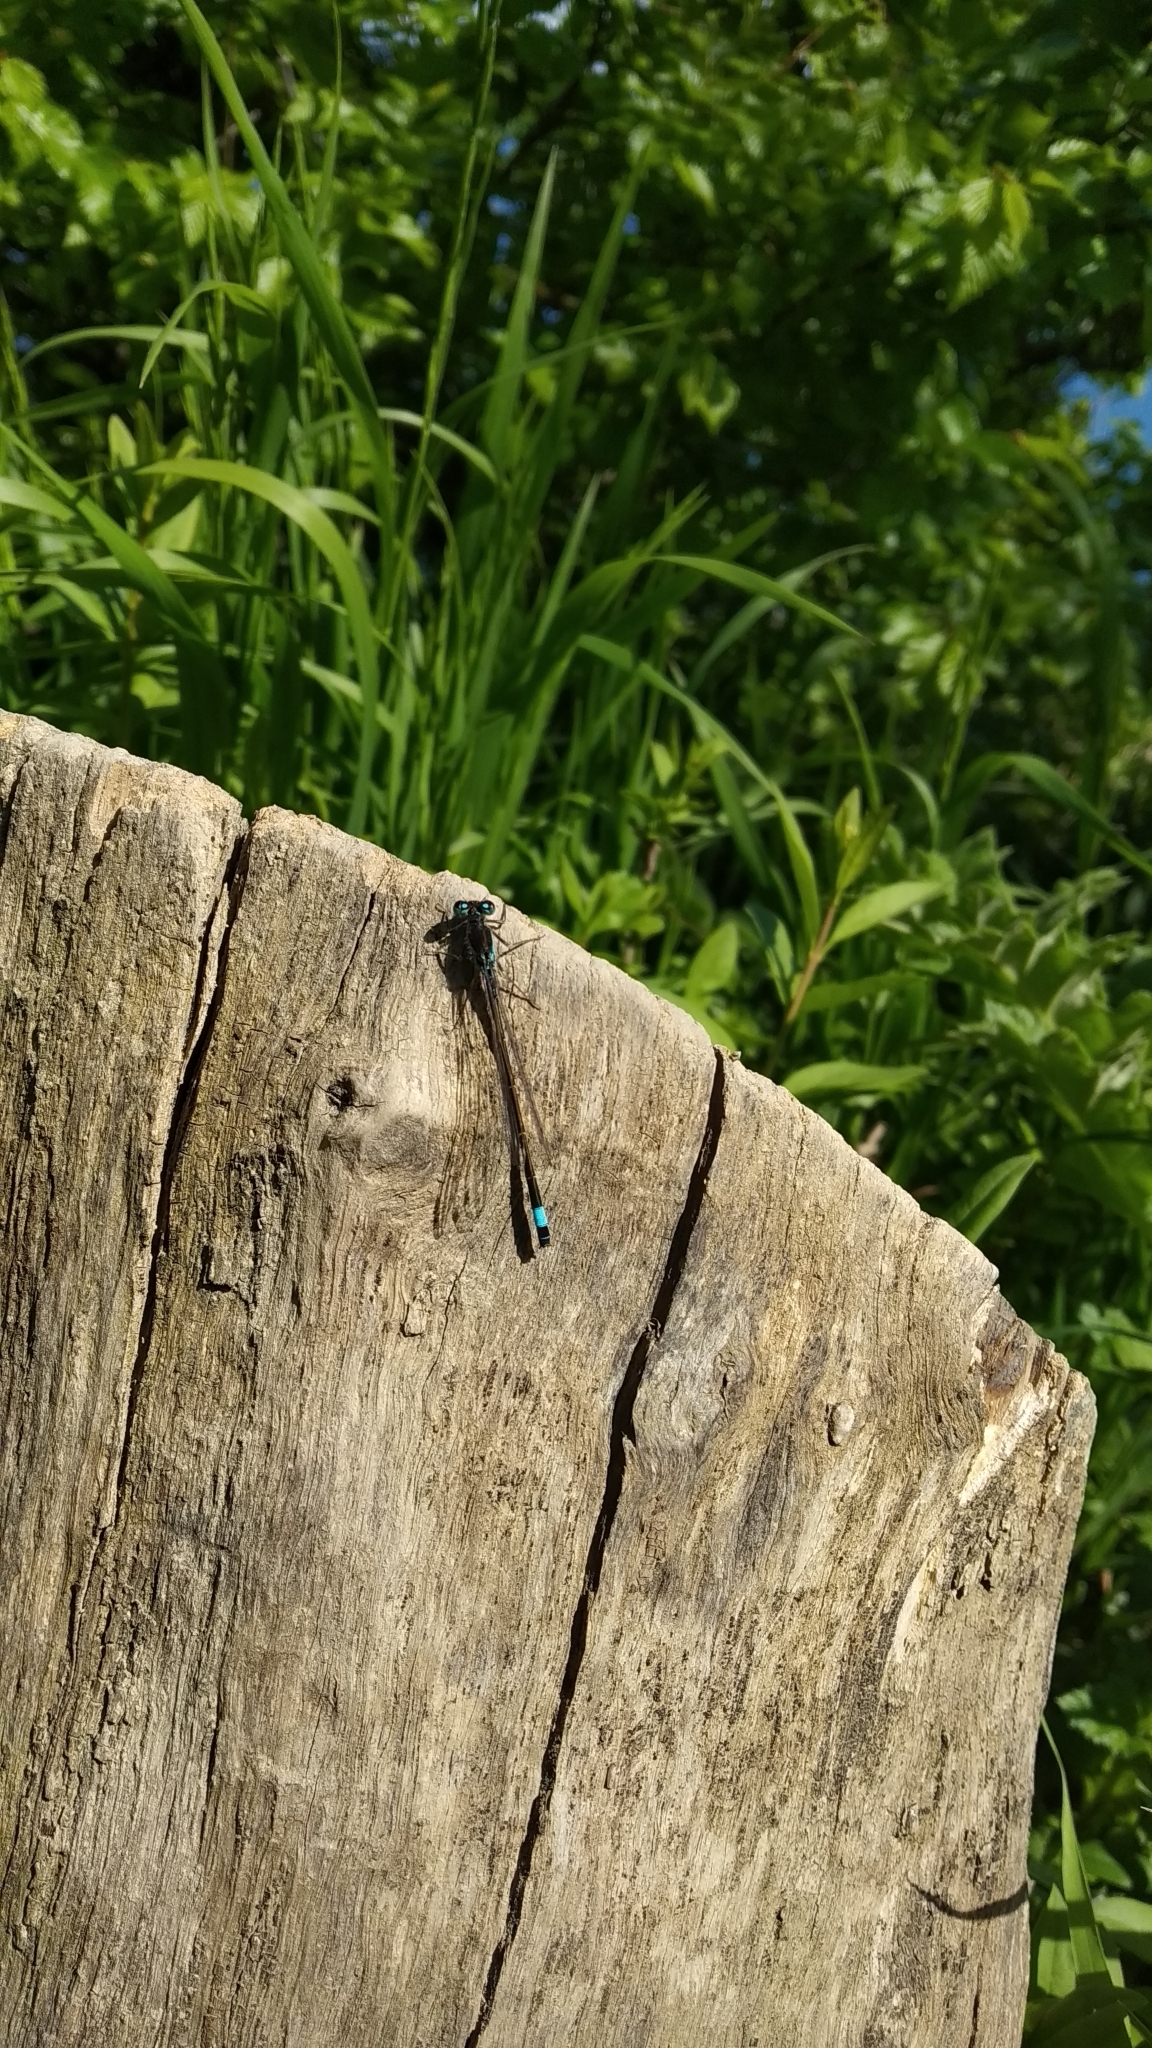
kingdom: Animalia
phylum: Arthropoda
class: Insecta
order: Odonata
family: Coenagrionidae
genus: Ischnura
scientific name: Ischnura elegans
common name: Blue-tailed damselfly
